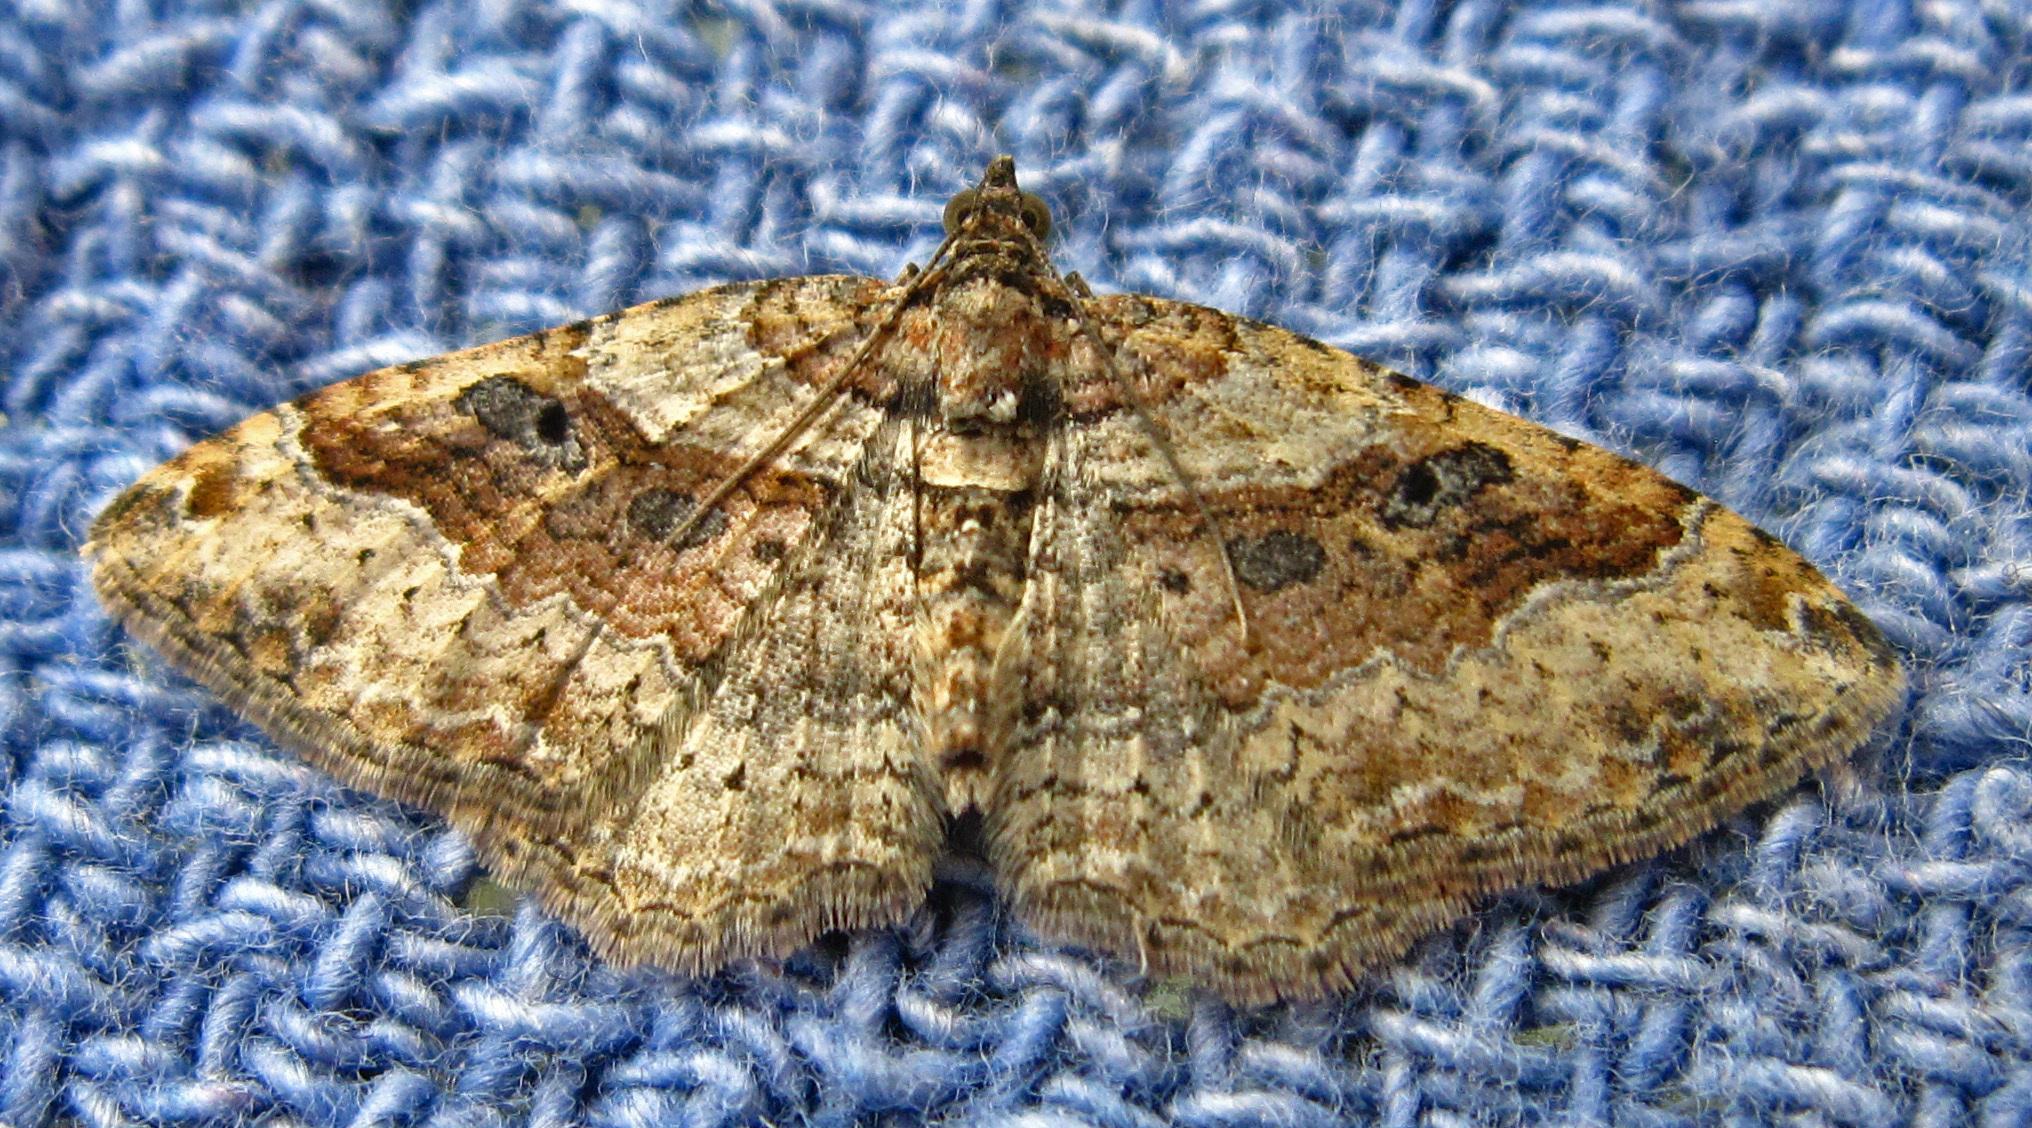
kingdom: Animalia
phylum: Arthropoda
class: Insecta
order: Lepidoptera
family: Geometridae
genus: Costaconvexa
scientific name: Costaconvexa centrostrigaria
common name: Bent-line carpet
